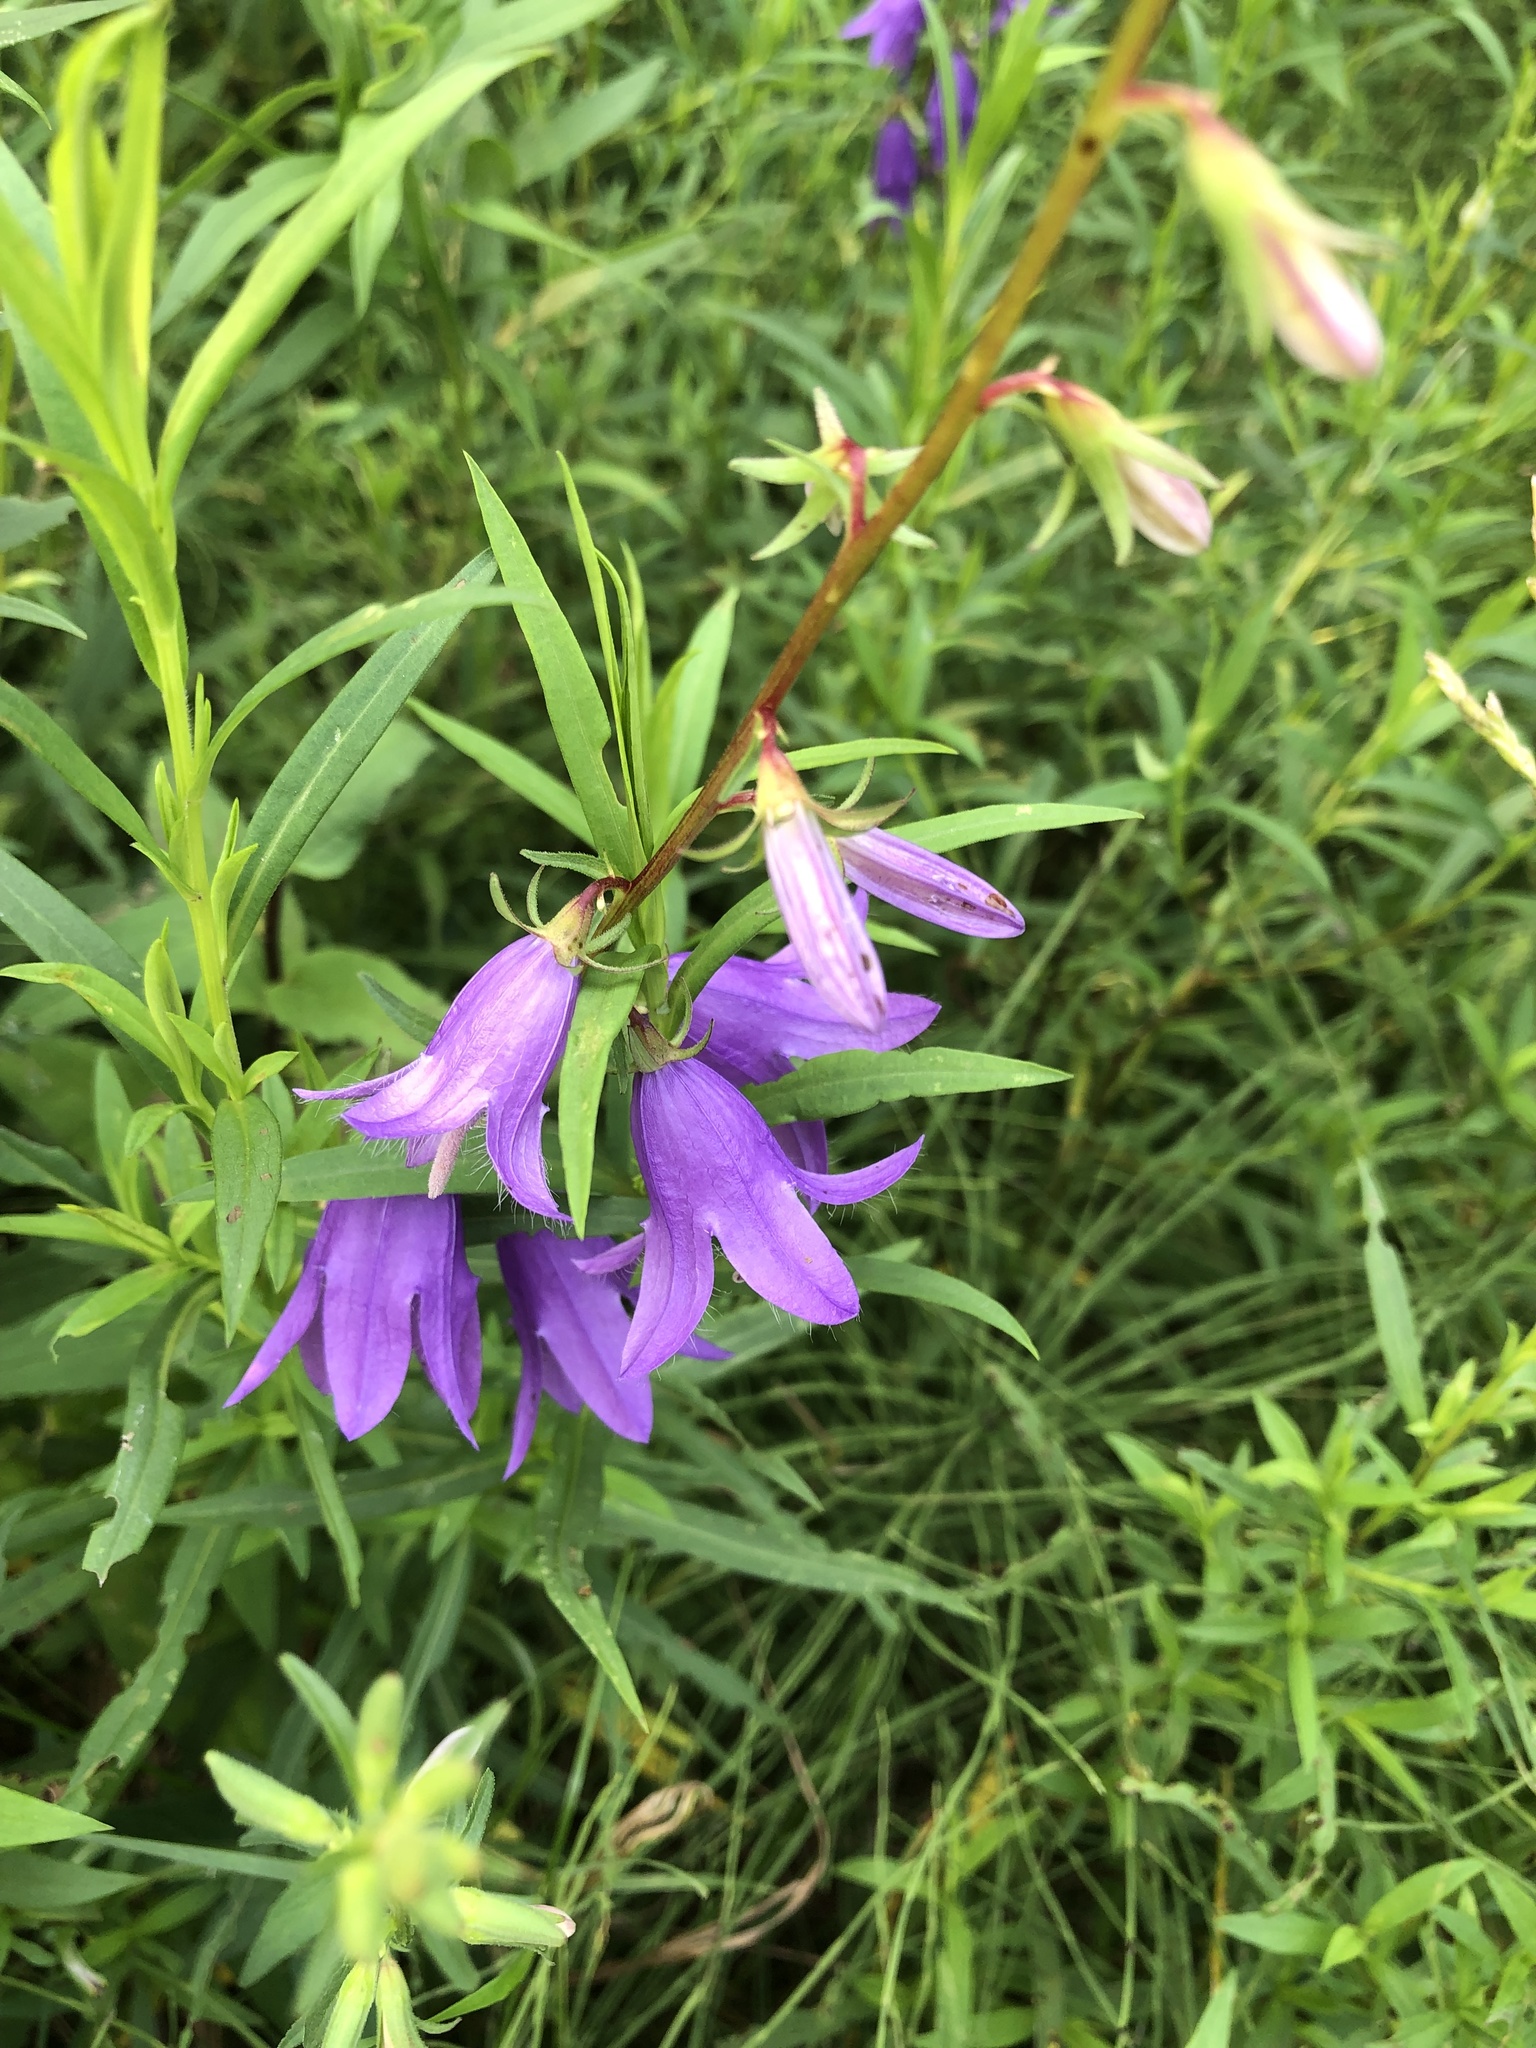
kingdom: Plantae
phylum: Tracheophyta
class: Magnoliopsida
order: Asterales
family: Campanulaceae
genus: Campanula
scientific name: Campanula rapunculoides
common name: Creeping bellflower
